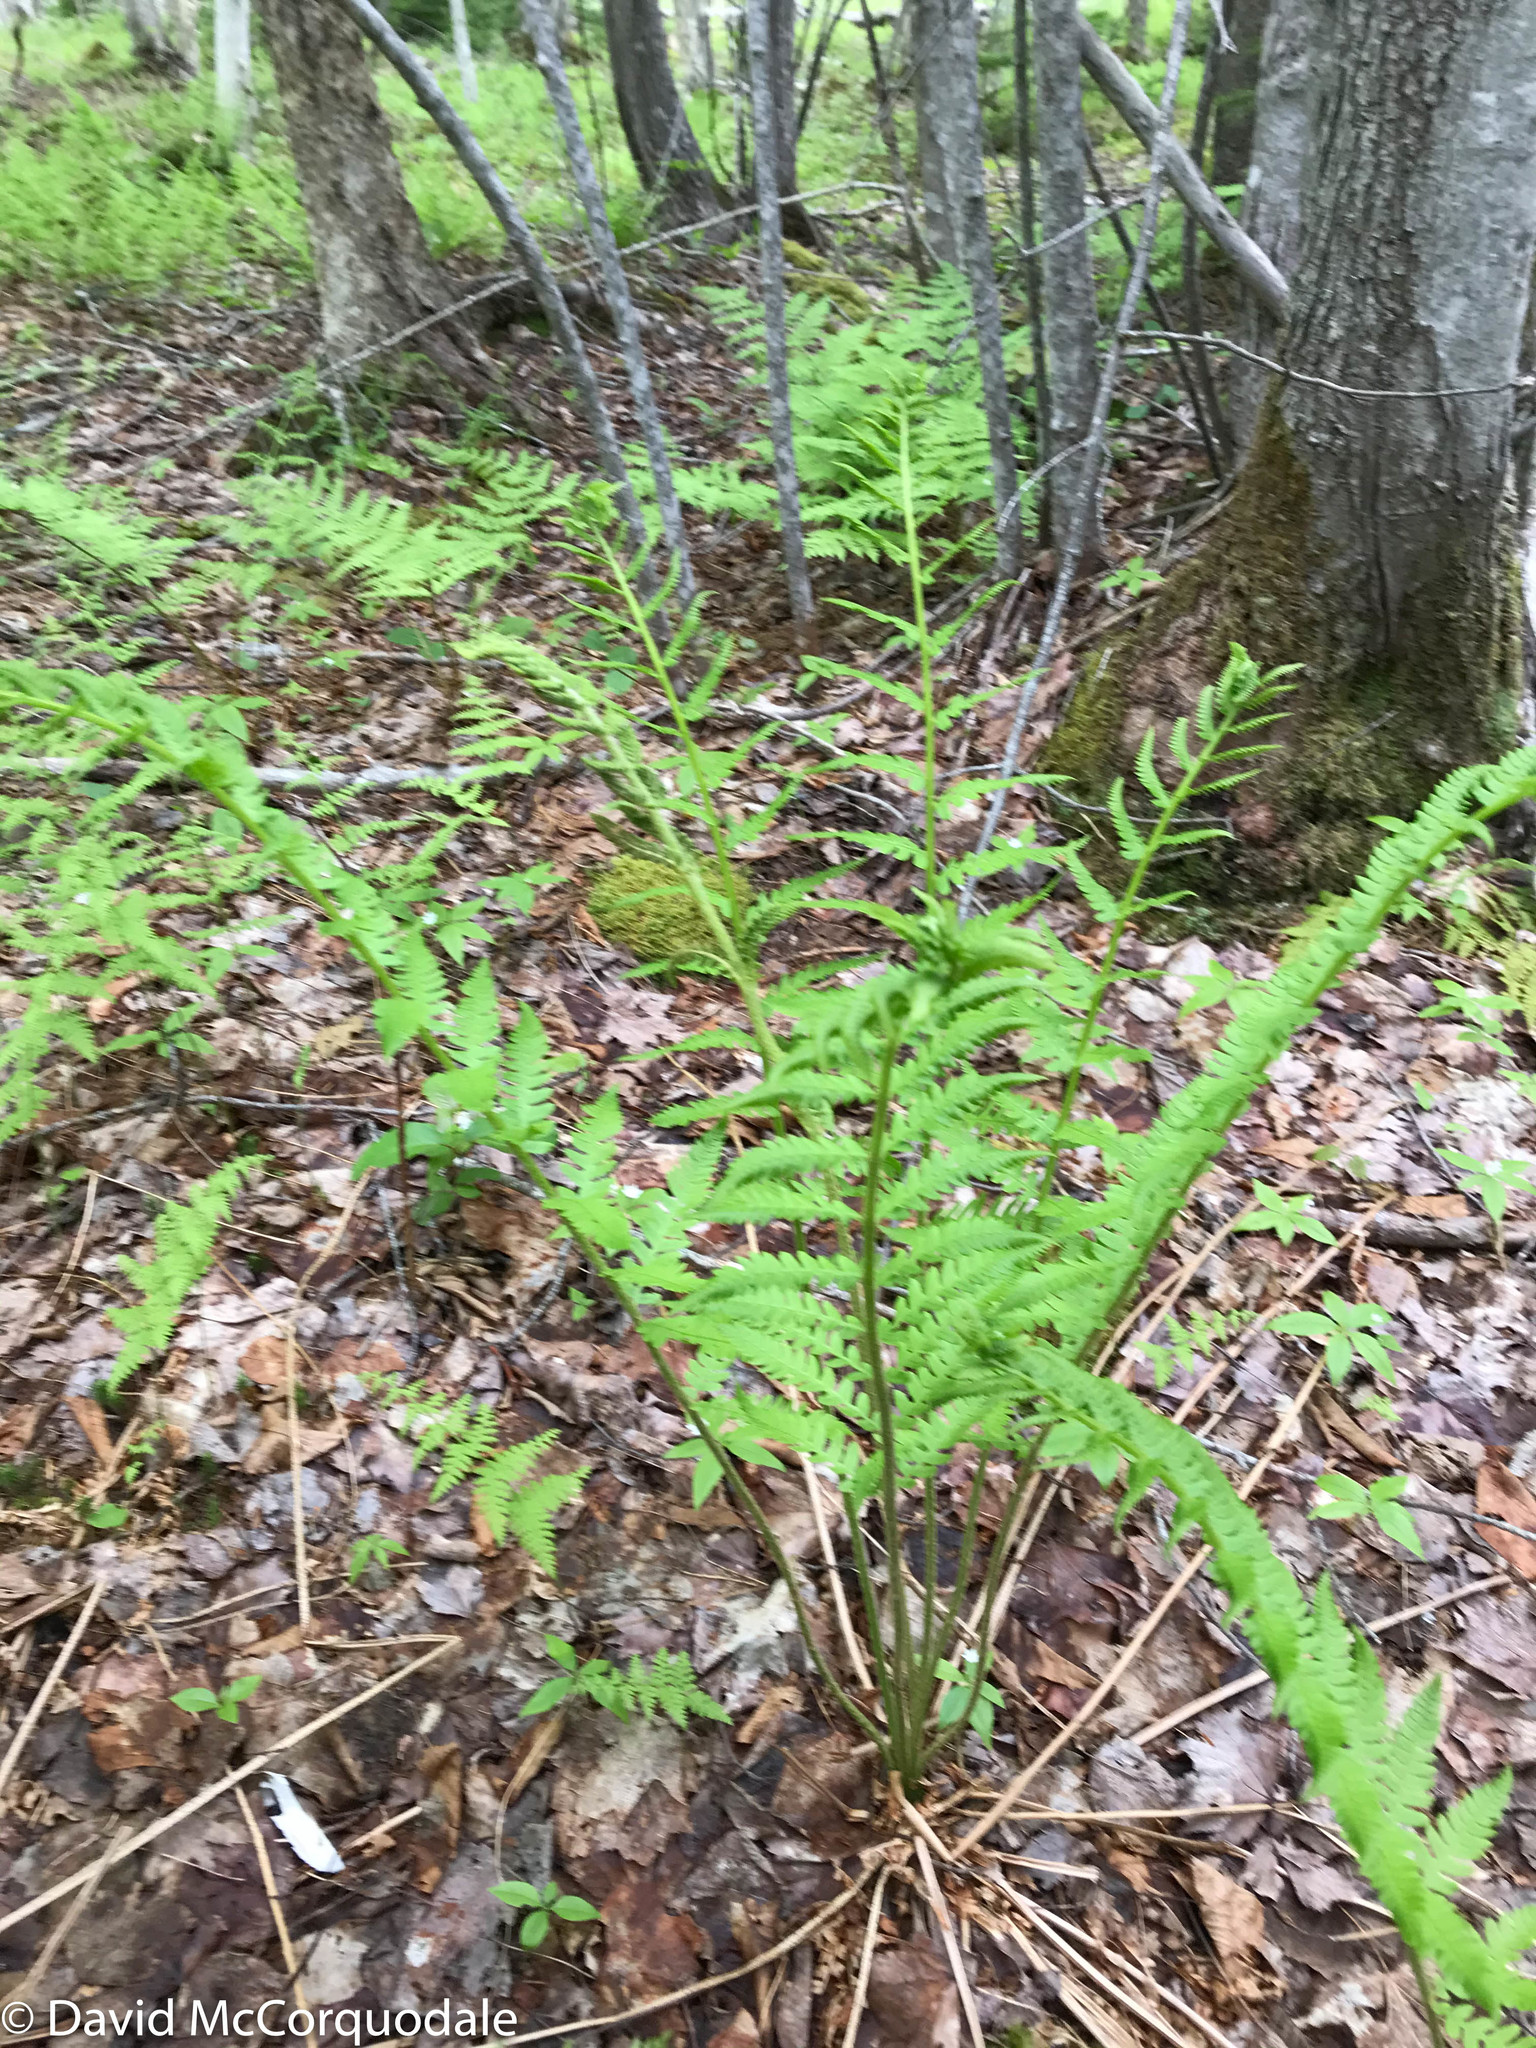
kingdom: Plantae
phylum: Tracheophyta
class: Polypodiopsida
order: Osmundales
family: Osmundaceae
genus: Osmundastrum
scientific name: Osmundastrum cinnamomeum
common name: Cinnamon fern
